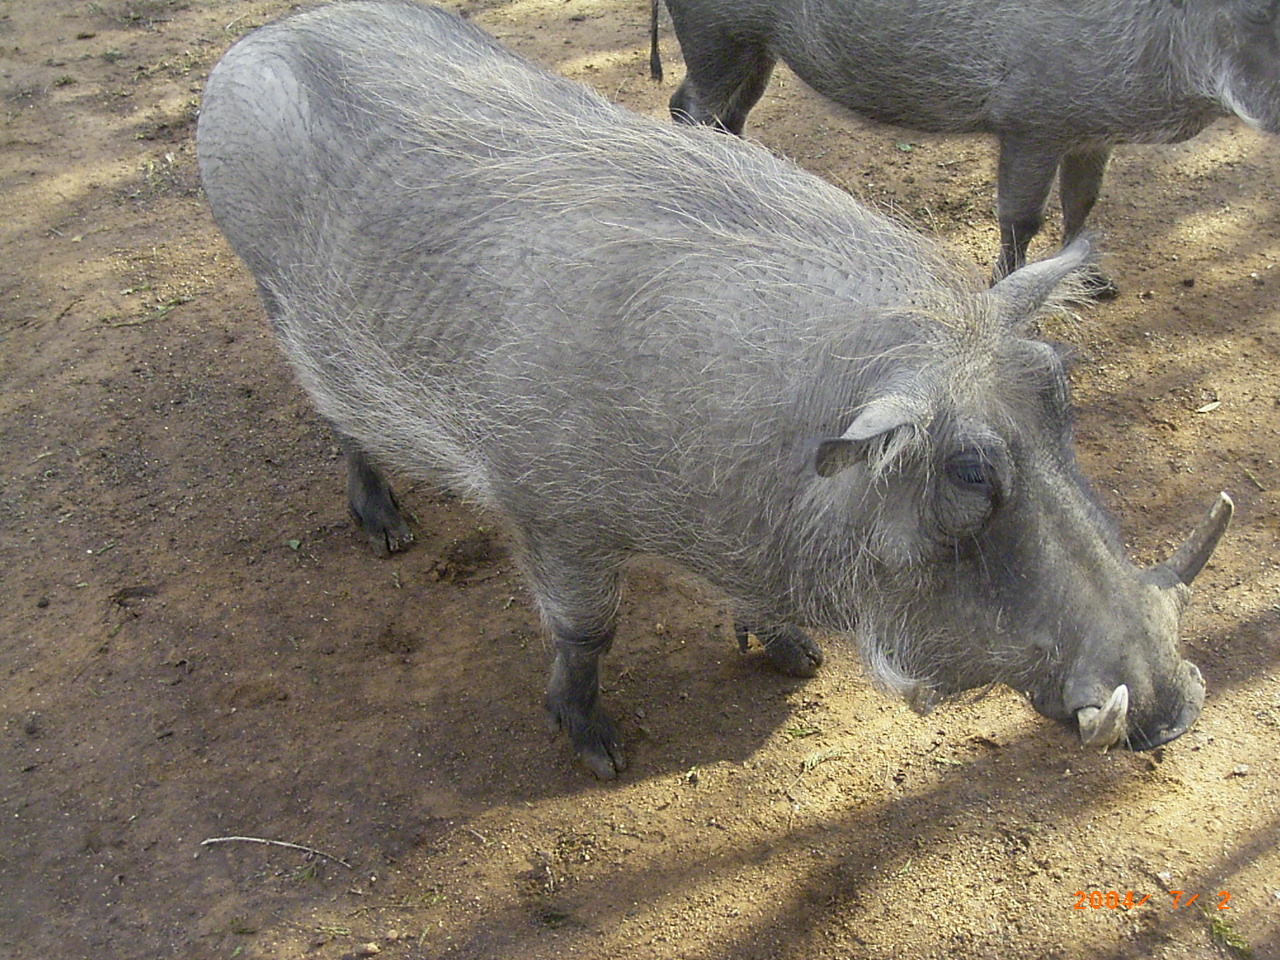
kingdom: Animalia
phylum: Chordata
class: Mammalia
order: Artiodactyla
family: Suidae
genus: Phacochoerus
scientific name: Phacochoerus africanus
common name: Common warthog
